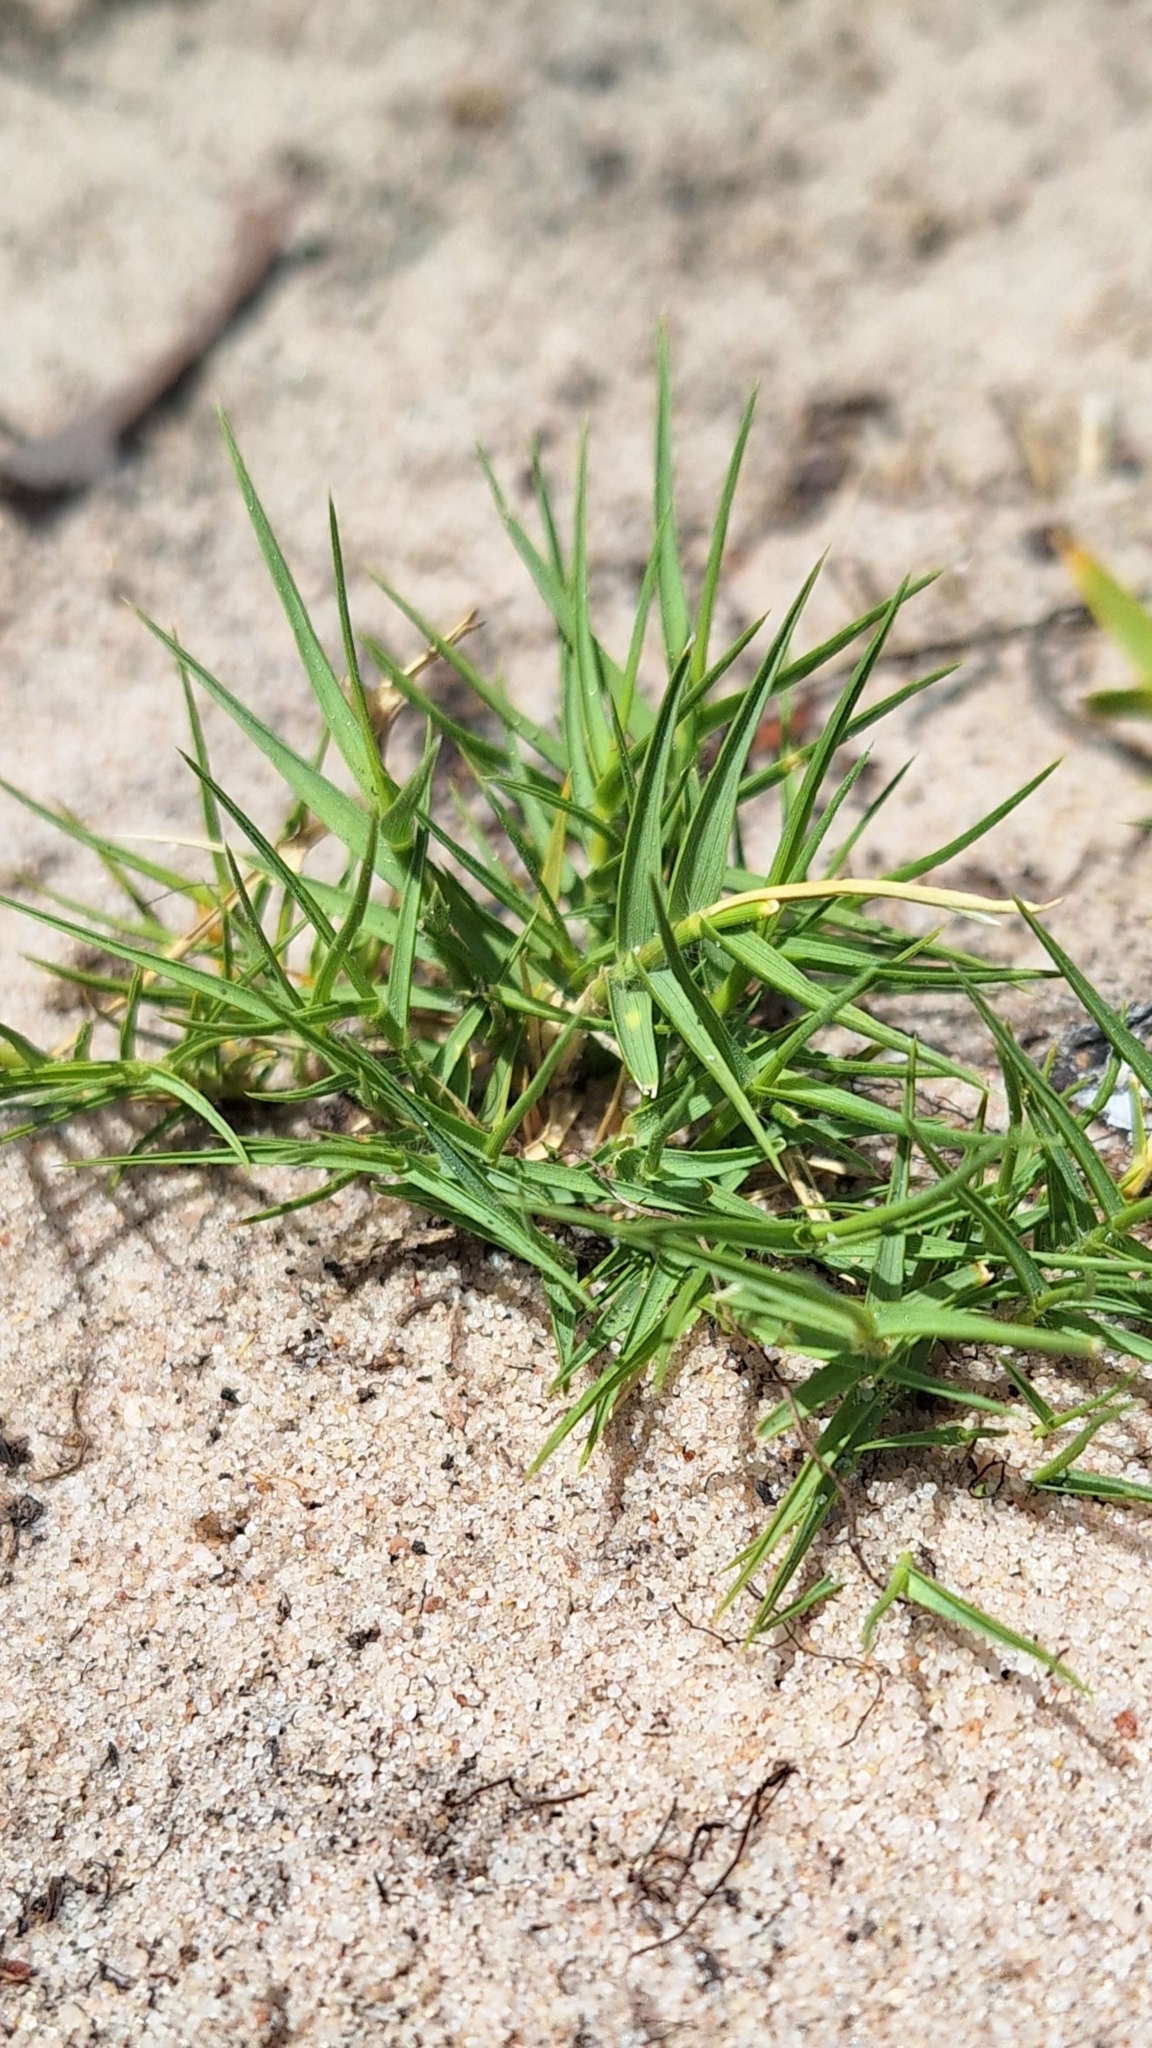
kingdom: Plantae
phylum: Tracheophyta
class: Liliopsida
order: Poales
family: Poaceae
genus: Distichlis
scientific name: Distichlis distichophylla
